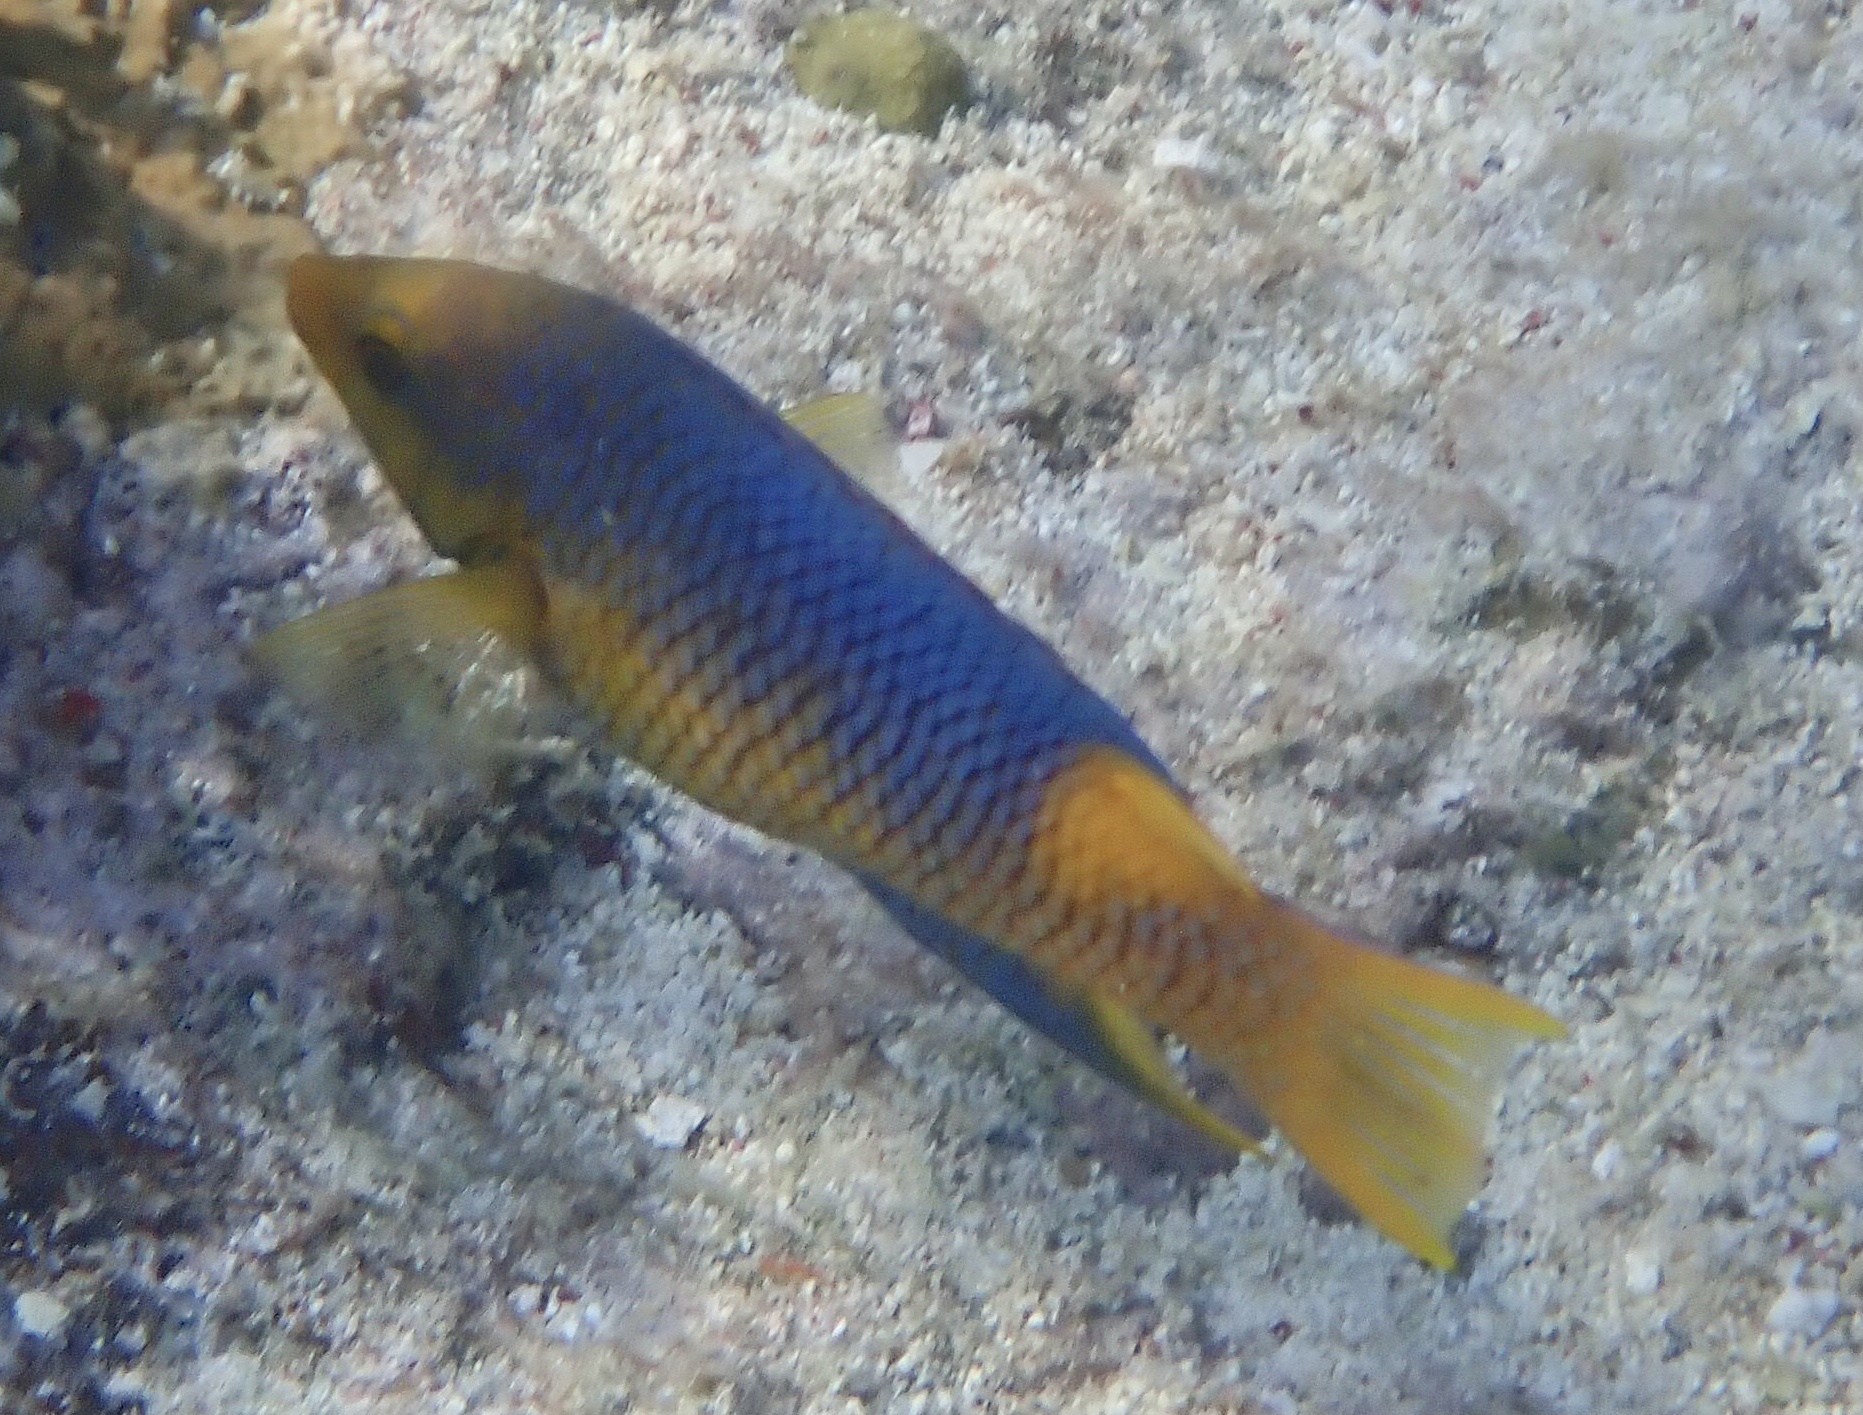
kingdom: Animalia
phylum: Chordata
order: Perciformes
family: Labridae
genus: Bodianus
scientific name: Bodianus rufus
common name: Spanish hogfish
